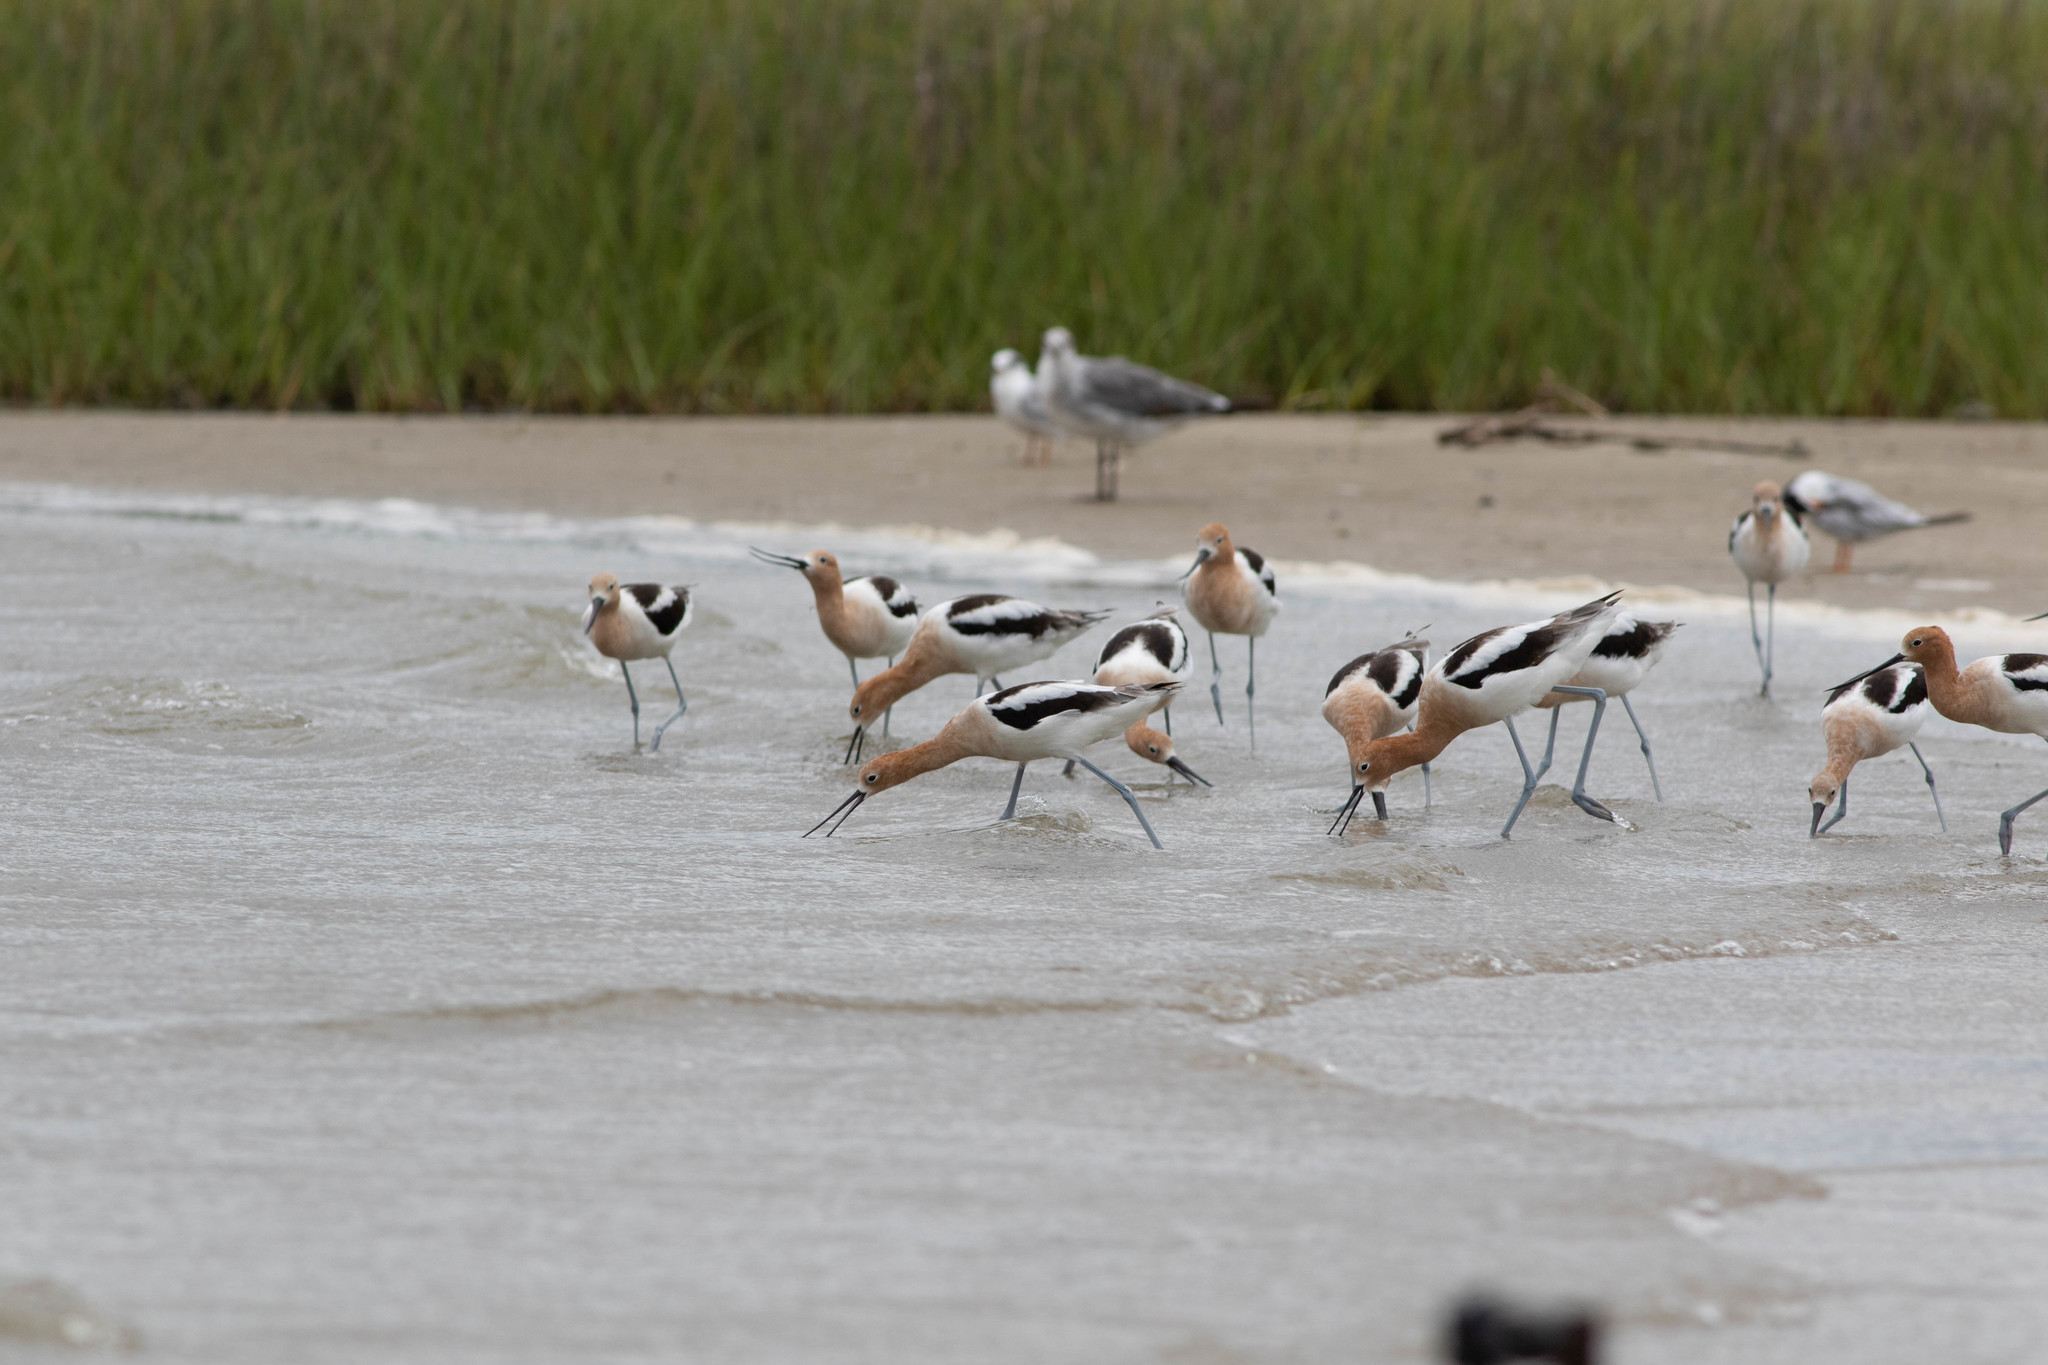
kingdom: Animalia
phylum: Chordata
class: Aves
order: Charadriiformes
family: Recurvirostridae
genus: Recurvirostra
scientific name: Recurvirostra americana
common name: American avocet
